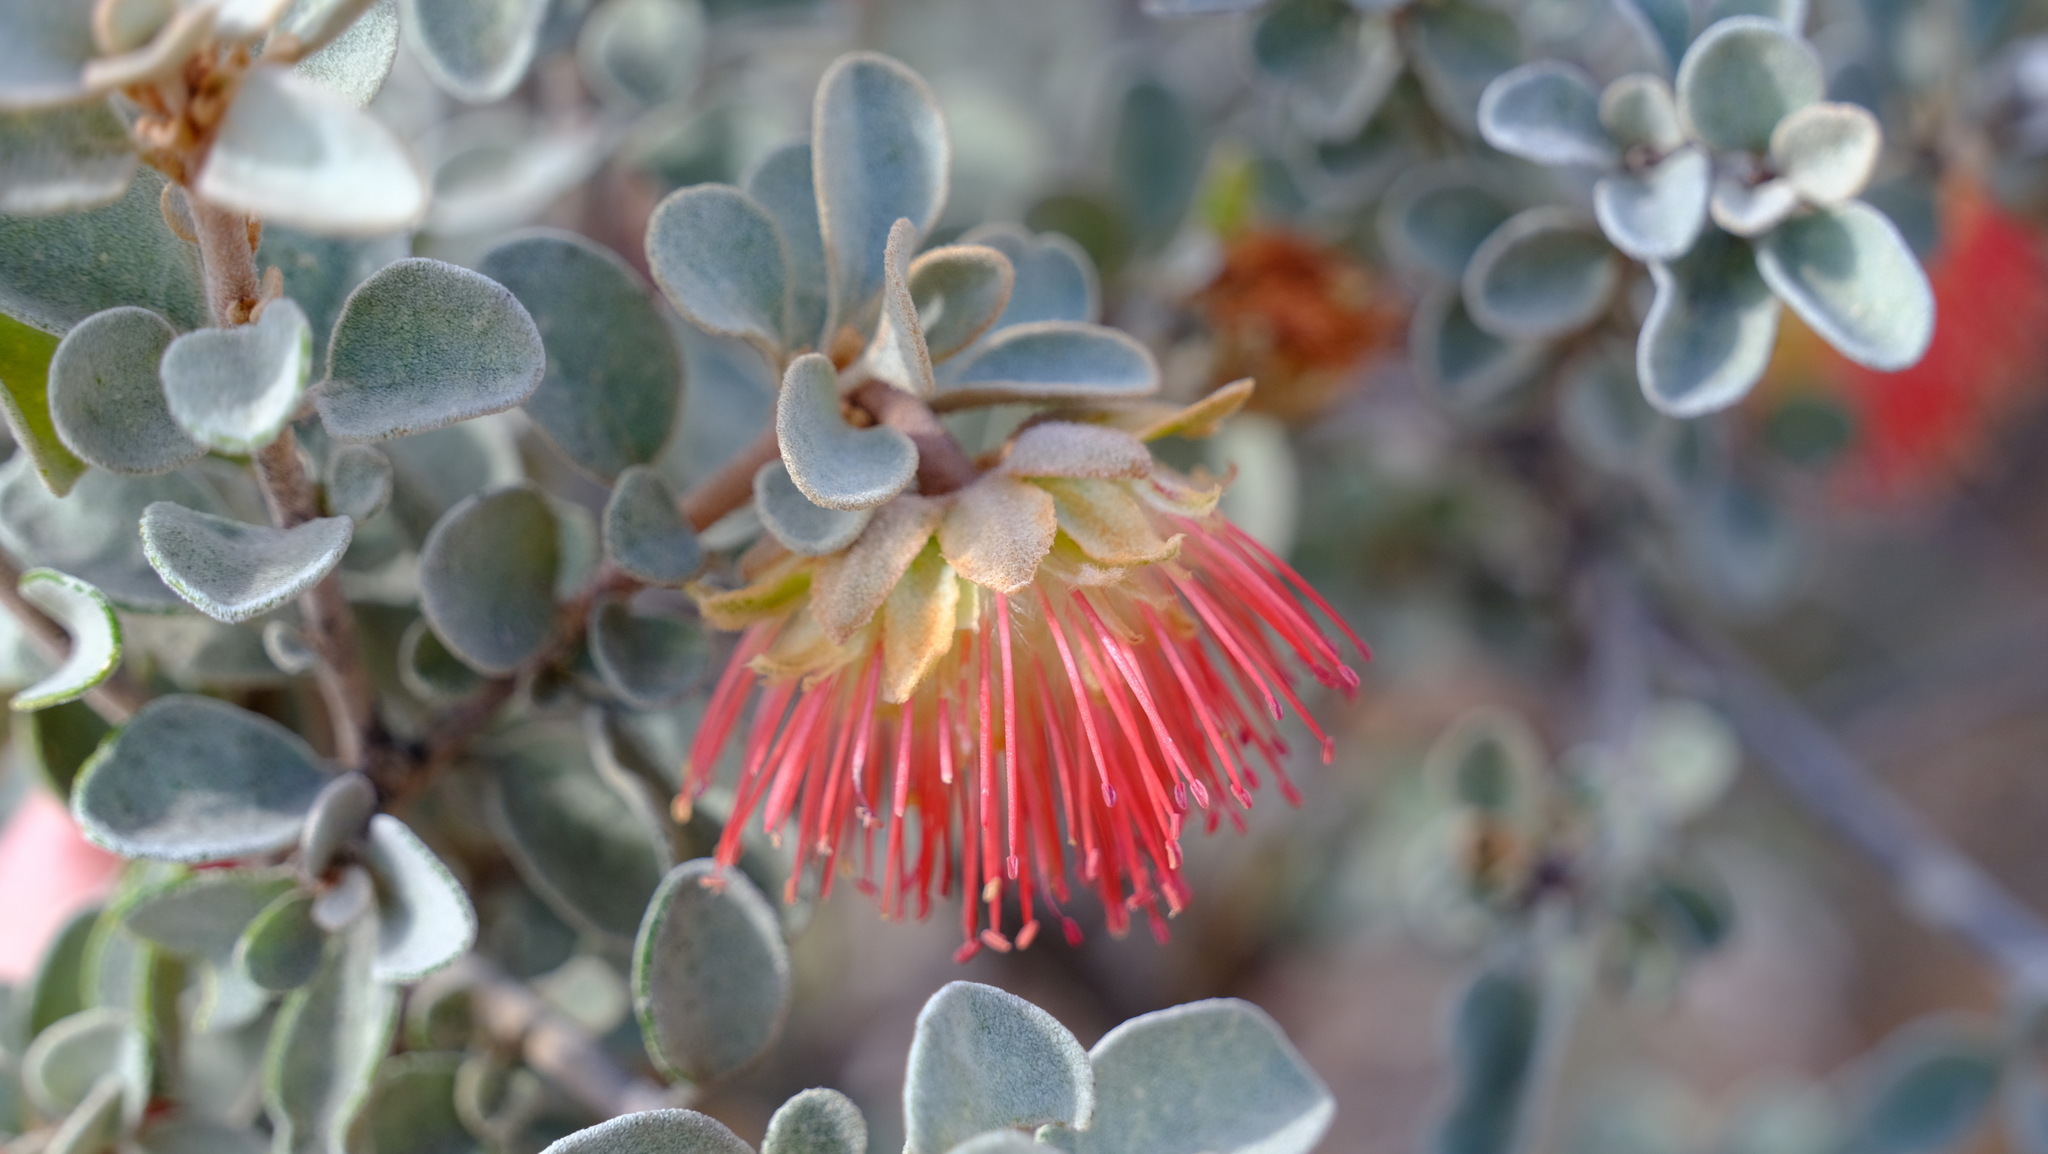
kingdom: Plantae
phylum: Tracheophyta
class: Magnoliopsida
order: Sapindales
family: Rutaceae
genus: Diplolaena
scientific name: Diplolaena mollis
